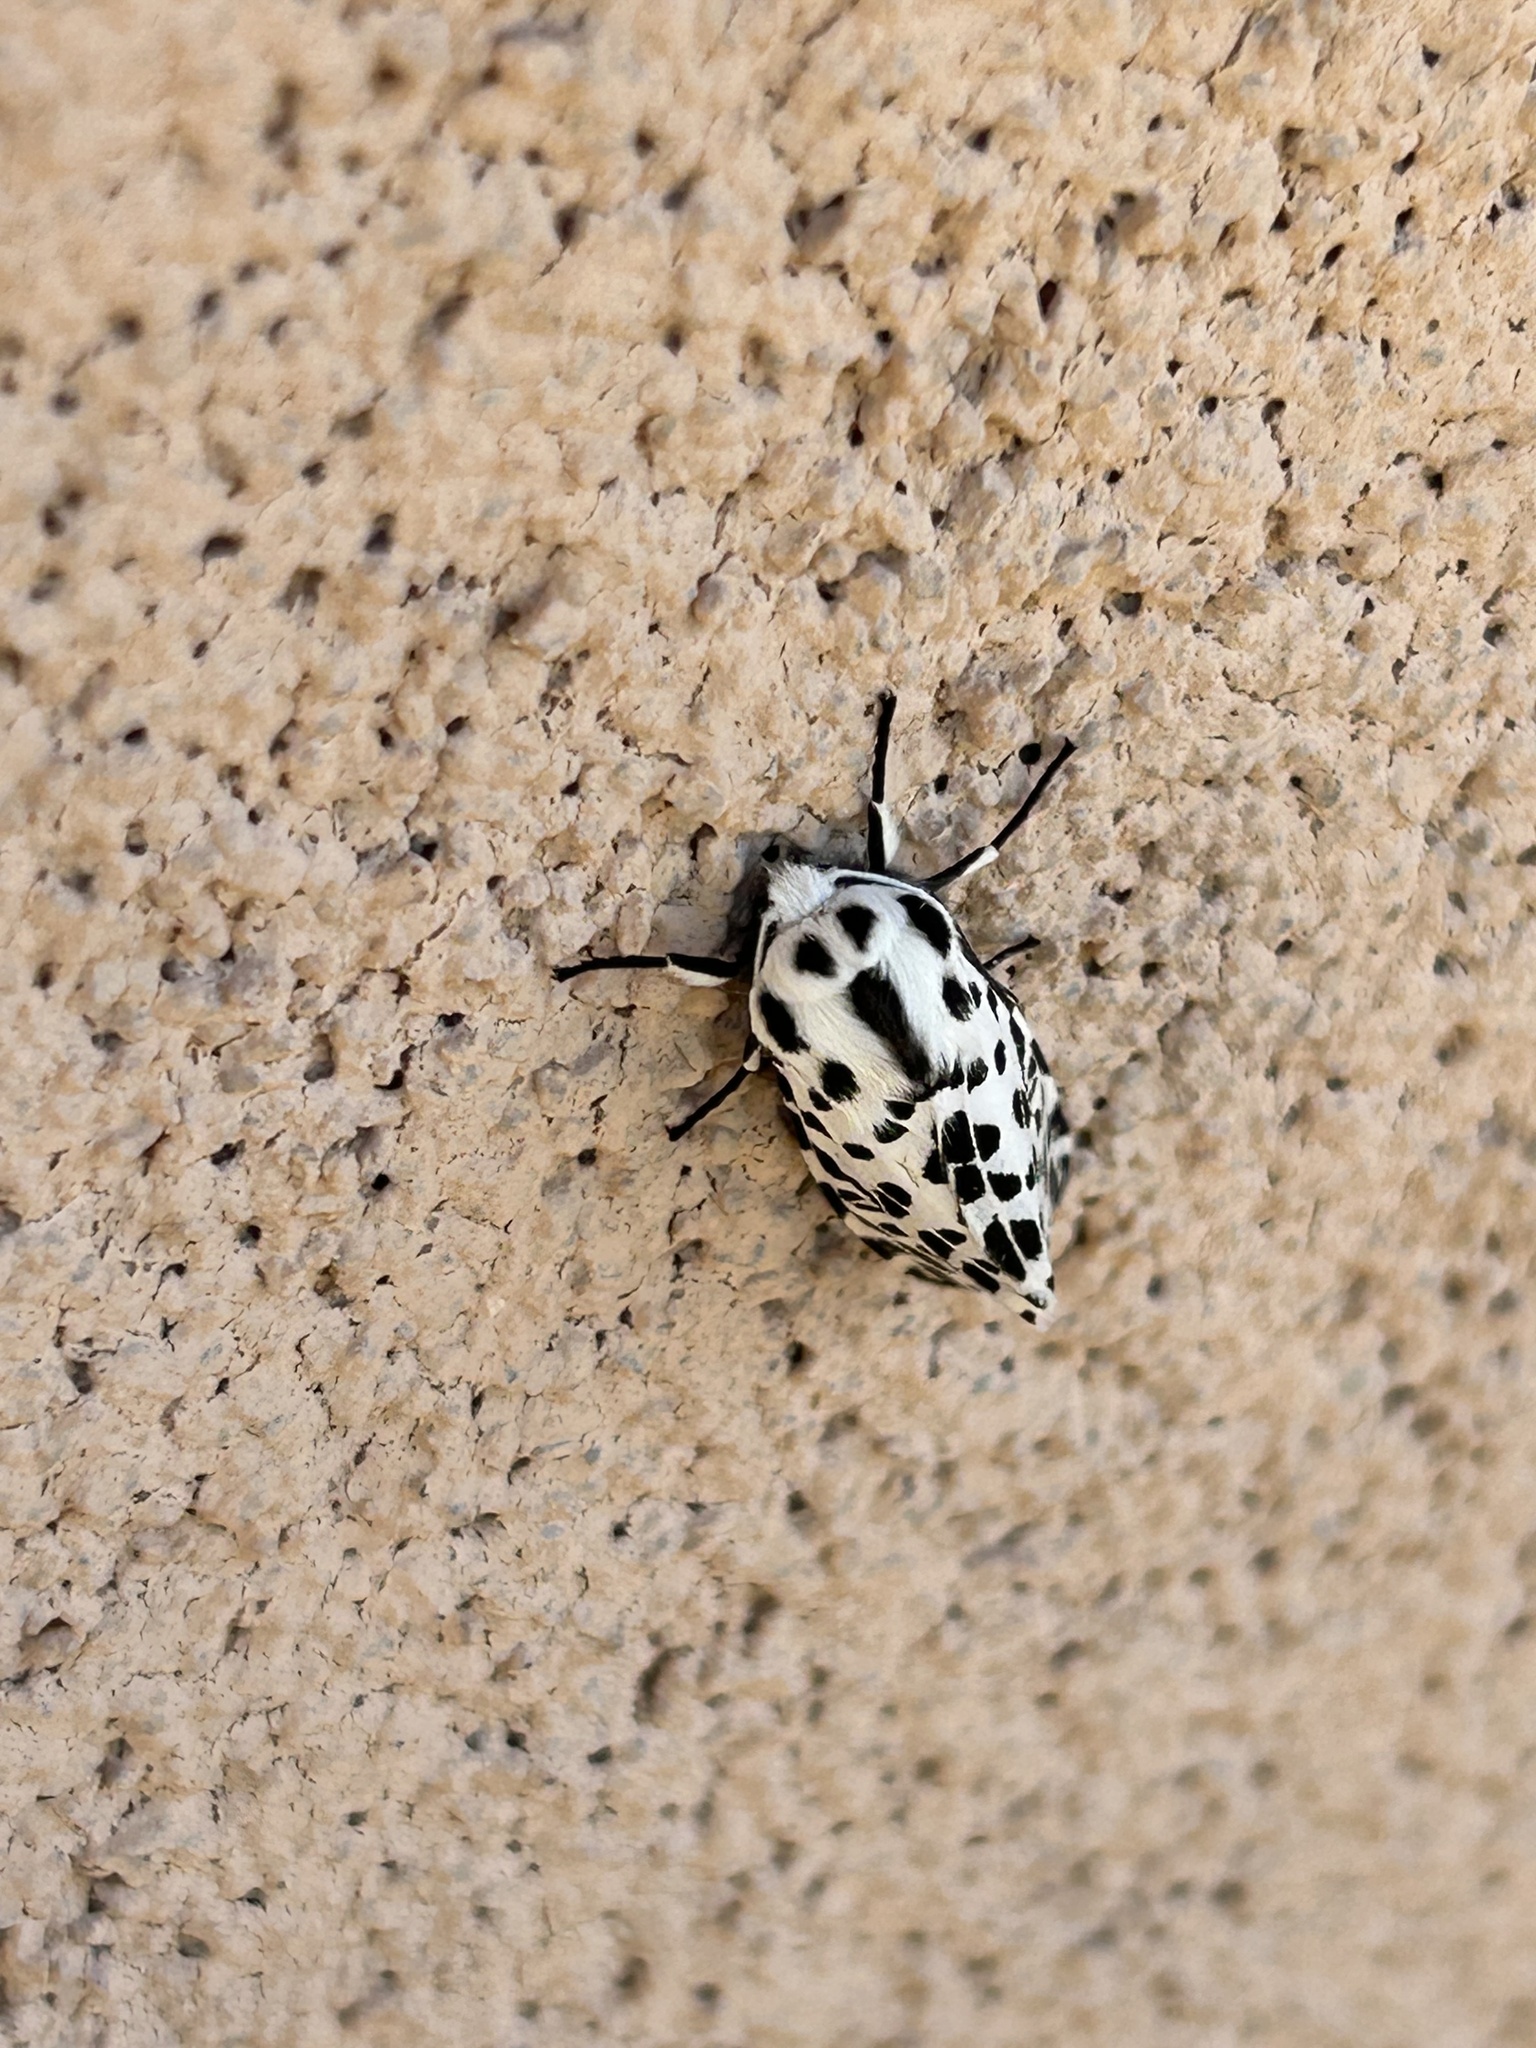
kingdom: Animalia
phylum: Arthropoda
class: Insecta
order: Lepidoptera
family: Erebidae
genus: Hypercompe
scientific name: Hypercompe permaculata
